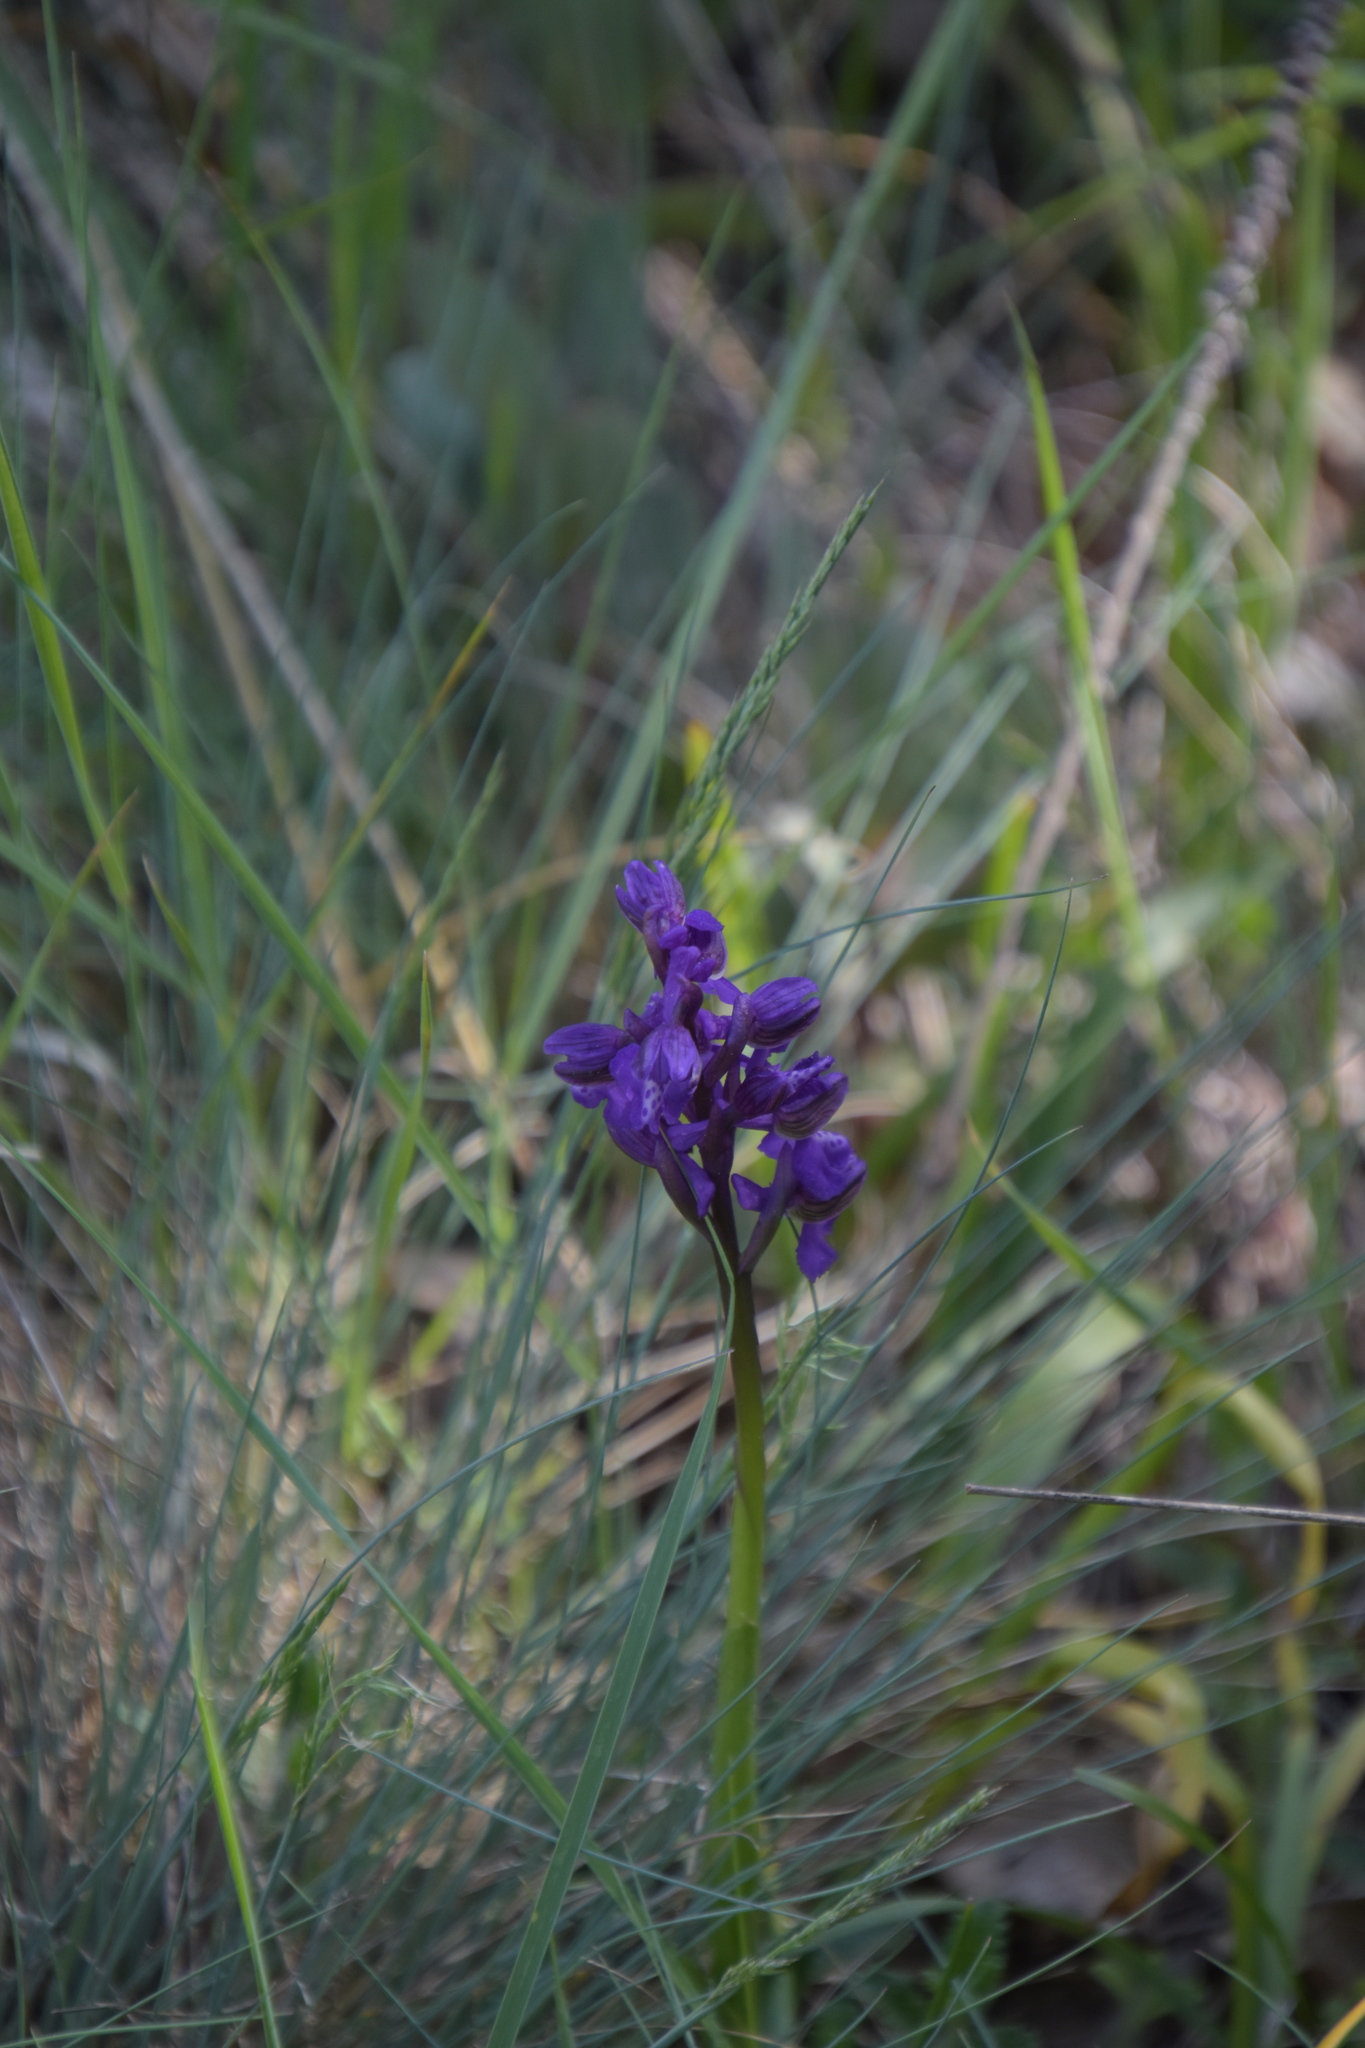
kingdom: Plantae
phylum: Tracheophyta
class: Liliopsida
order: Asparagales
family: Orchidaceae
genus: Anacamptis
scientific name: Anacamptis morio
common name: Green-winged orchid
